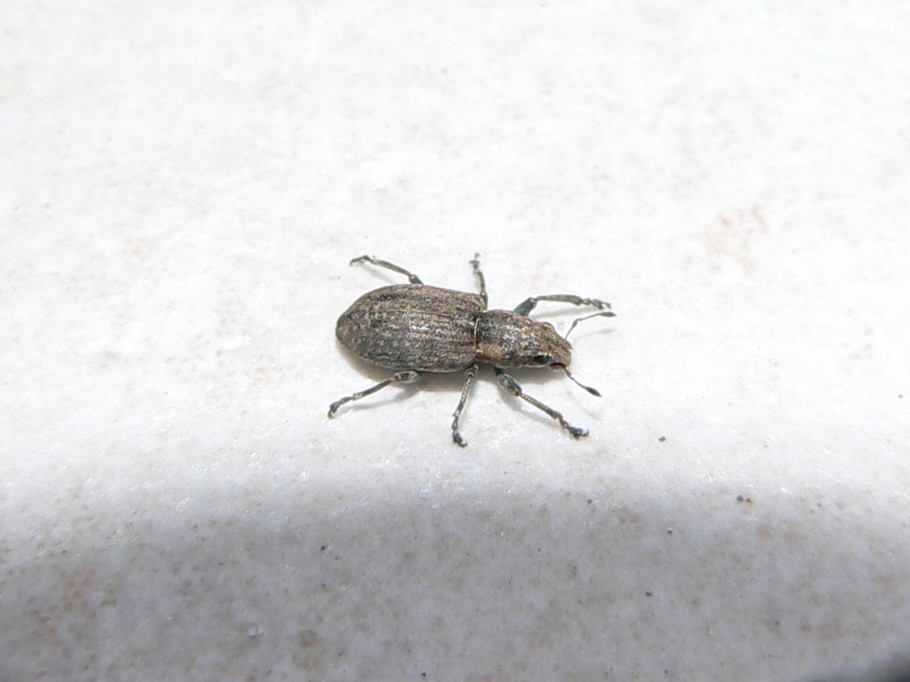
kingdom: Animalia
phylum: Arthropoda
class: Insecta
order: Coleoptera
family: Curculionidae
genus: Sitona
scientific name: Sitona obsoletus
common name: Weevil
